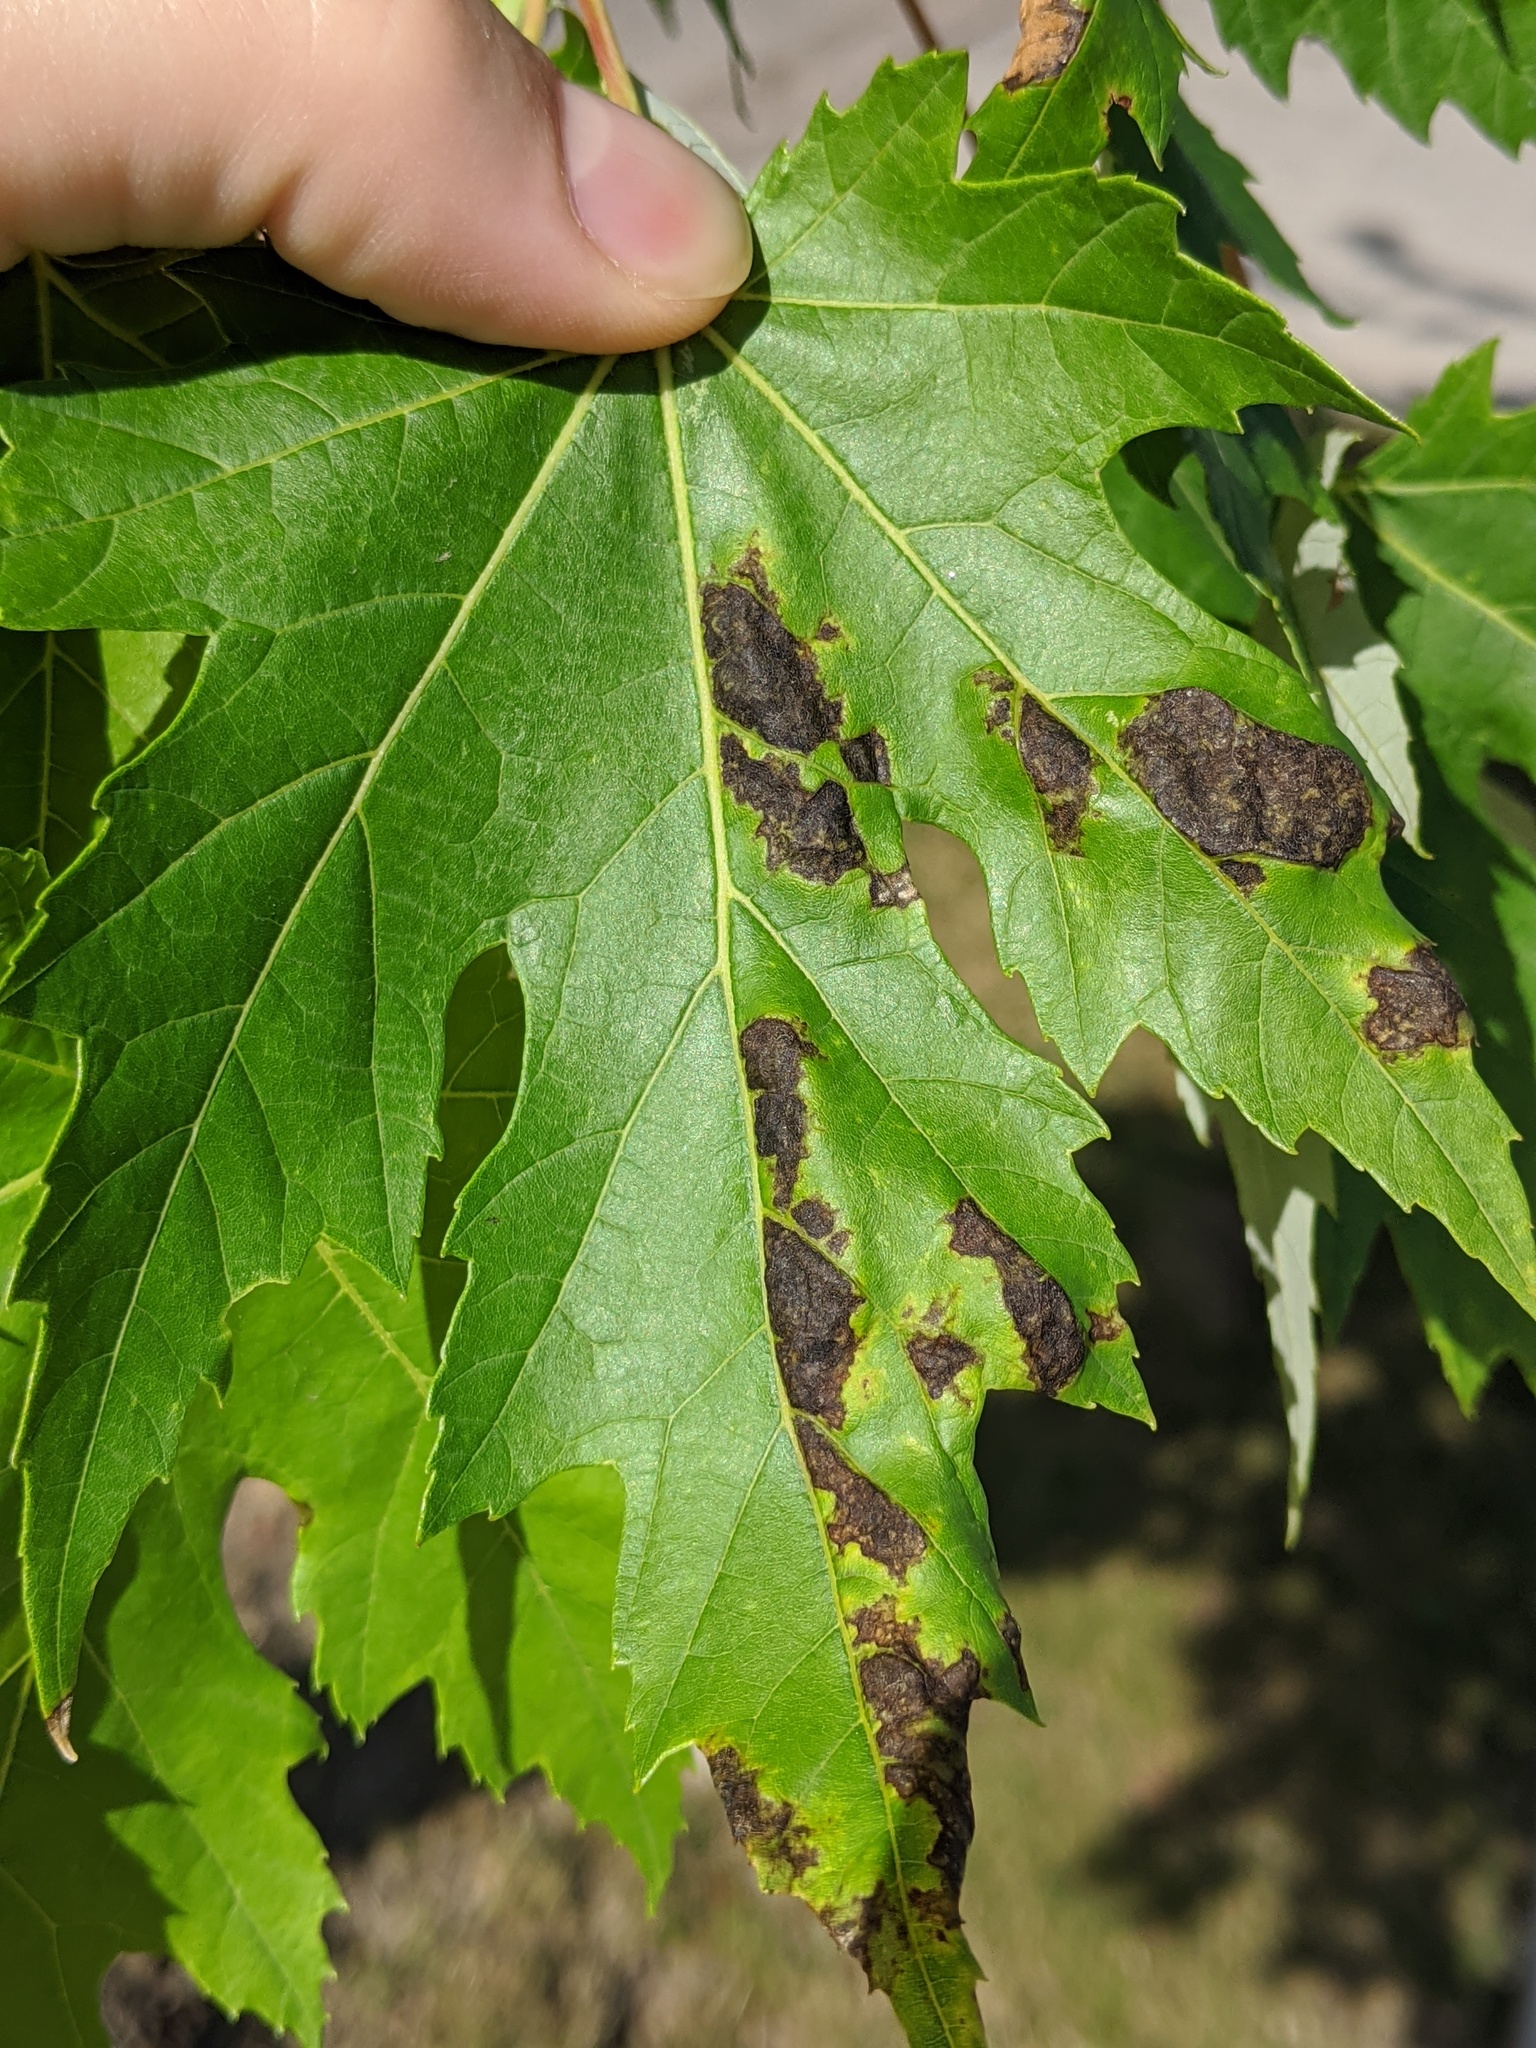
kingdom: Fungi
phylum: Ascomycota
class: Taphrinomycetes
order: Taphrinales
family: Taphrinaceae
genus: Taphrina
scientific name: Taphrina carveri
